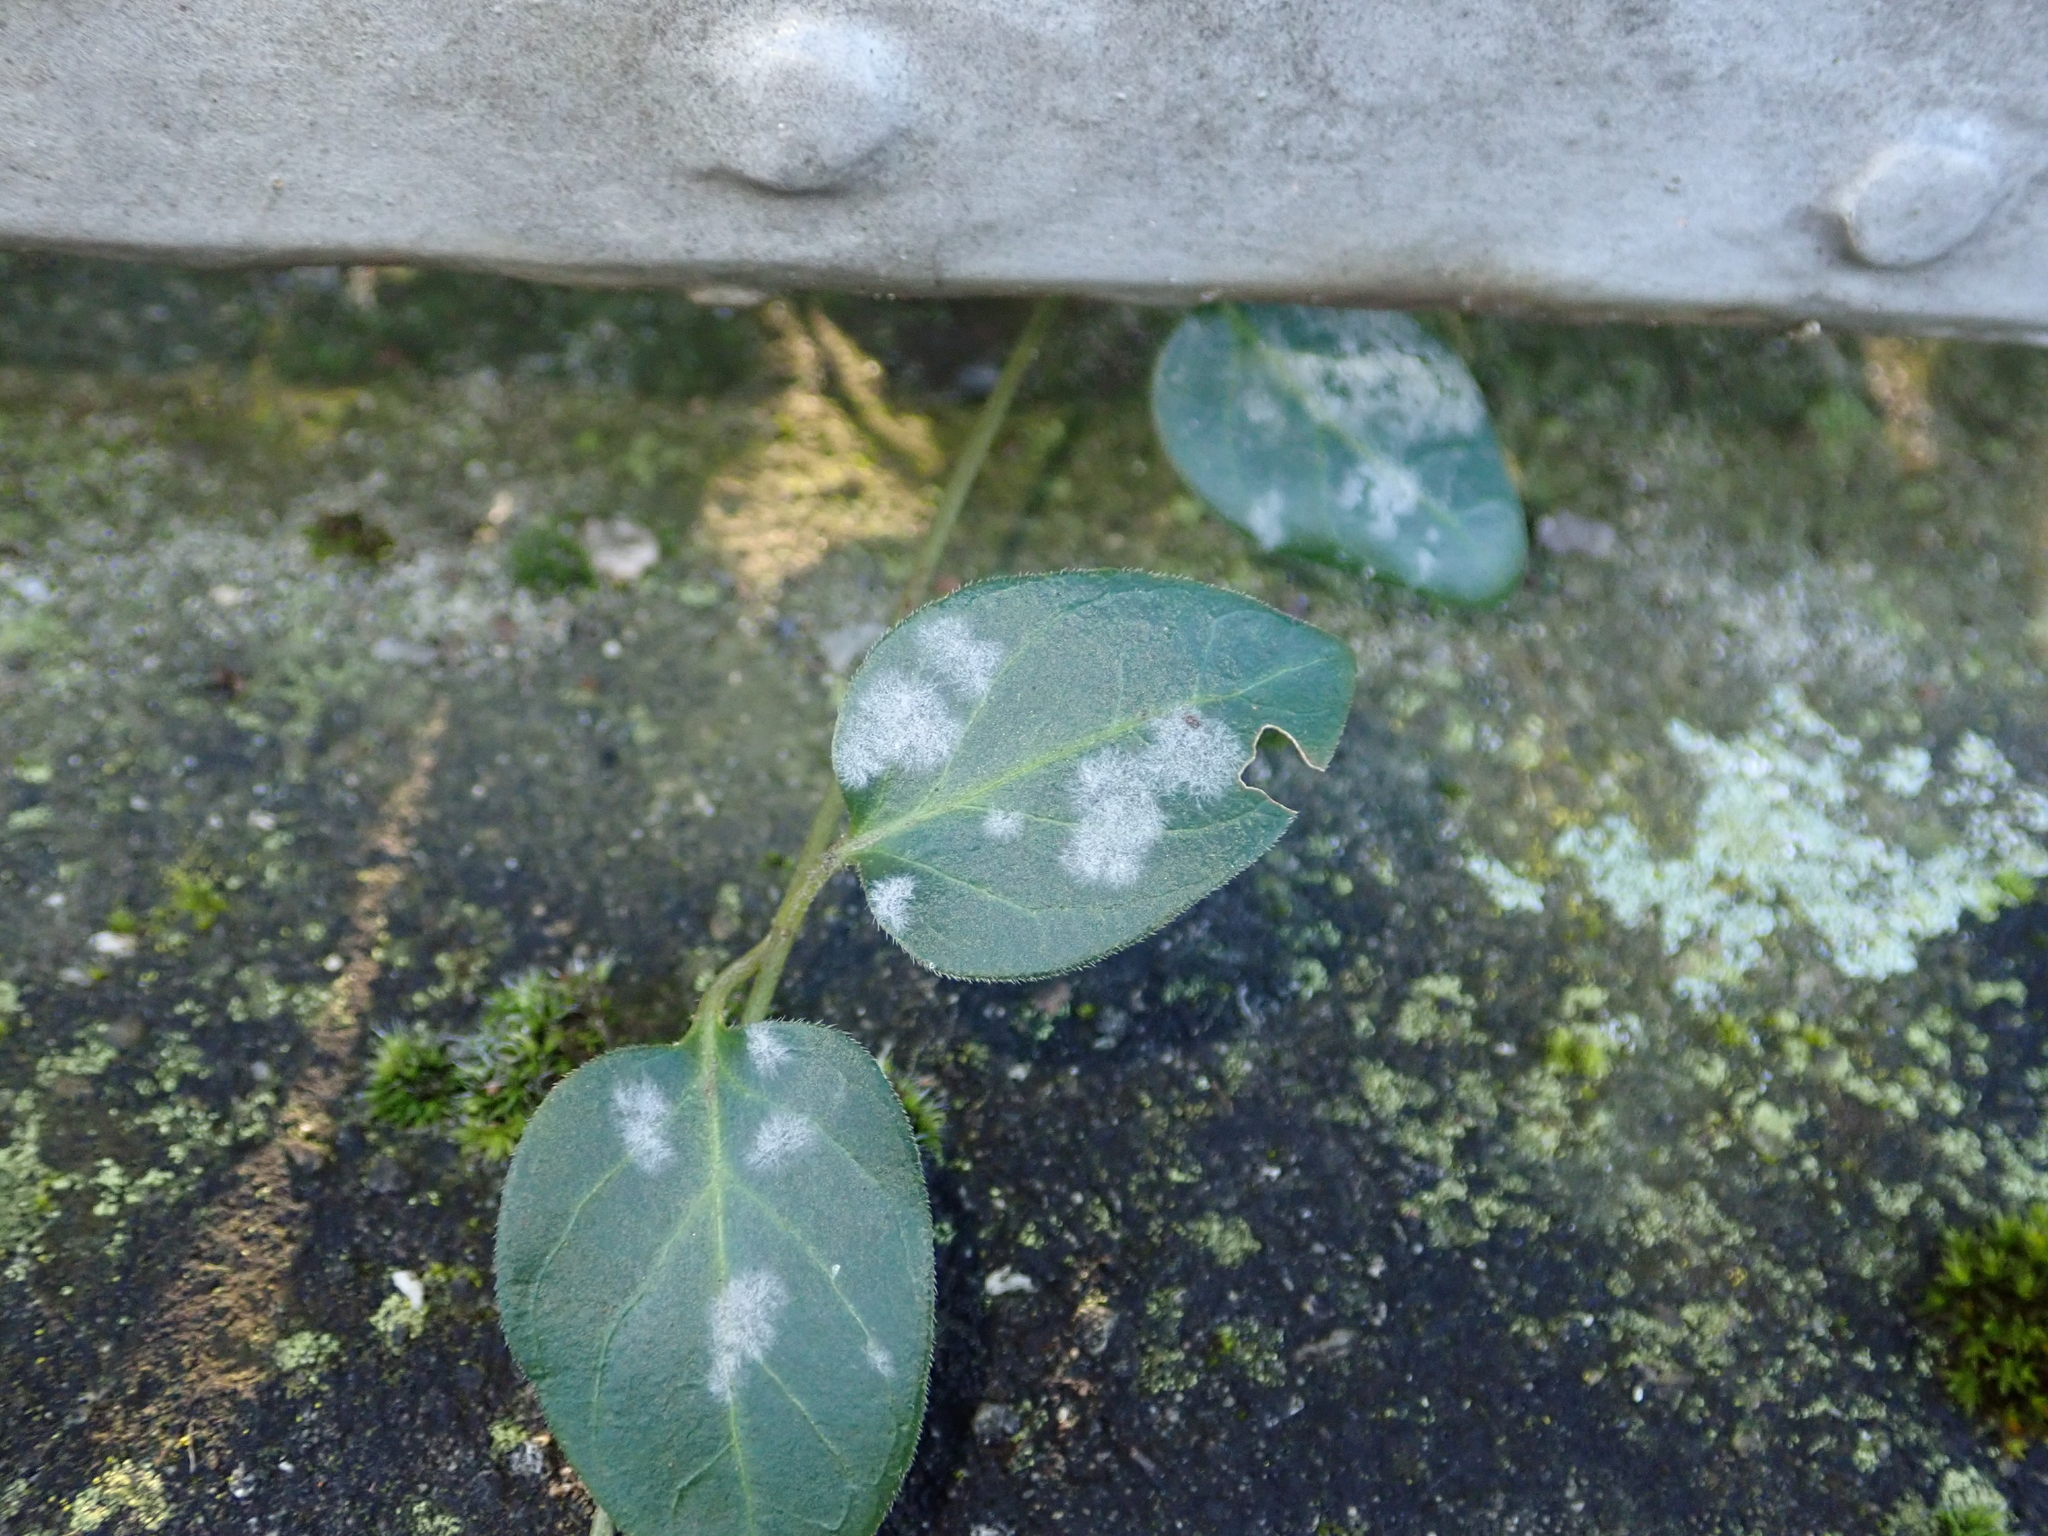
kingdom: Plantae
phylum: Tracheophyta
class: Magnoliopsida
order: Gentianales
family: Apocynaceae
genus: Vinca
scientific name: Vinca major
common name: Greater periwinkle
